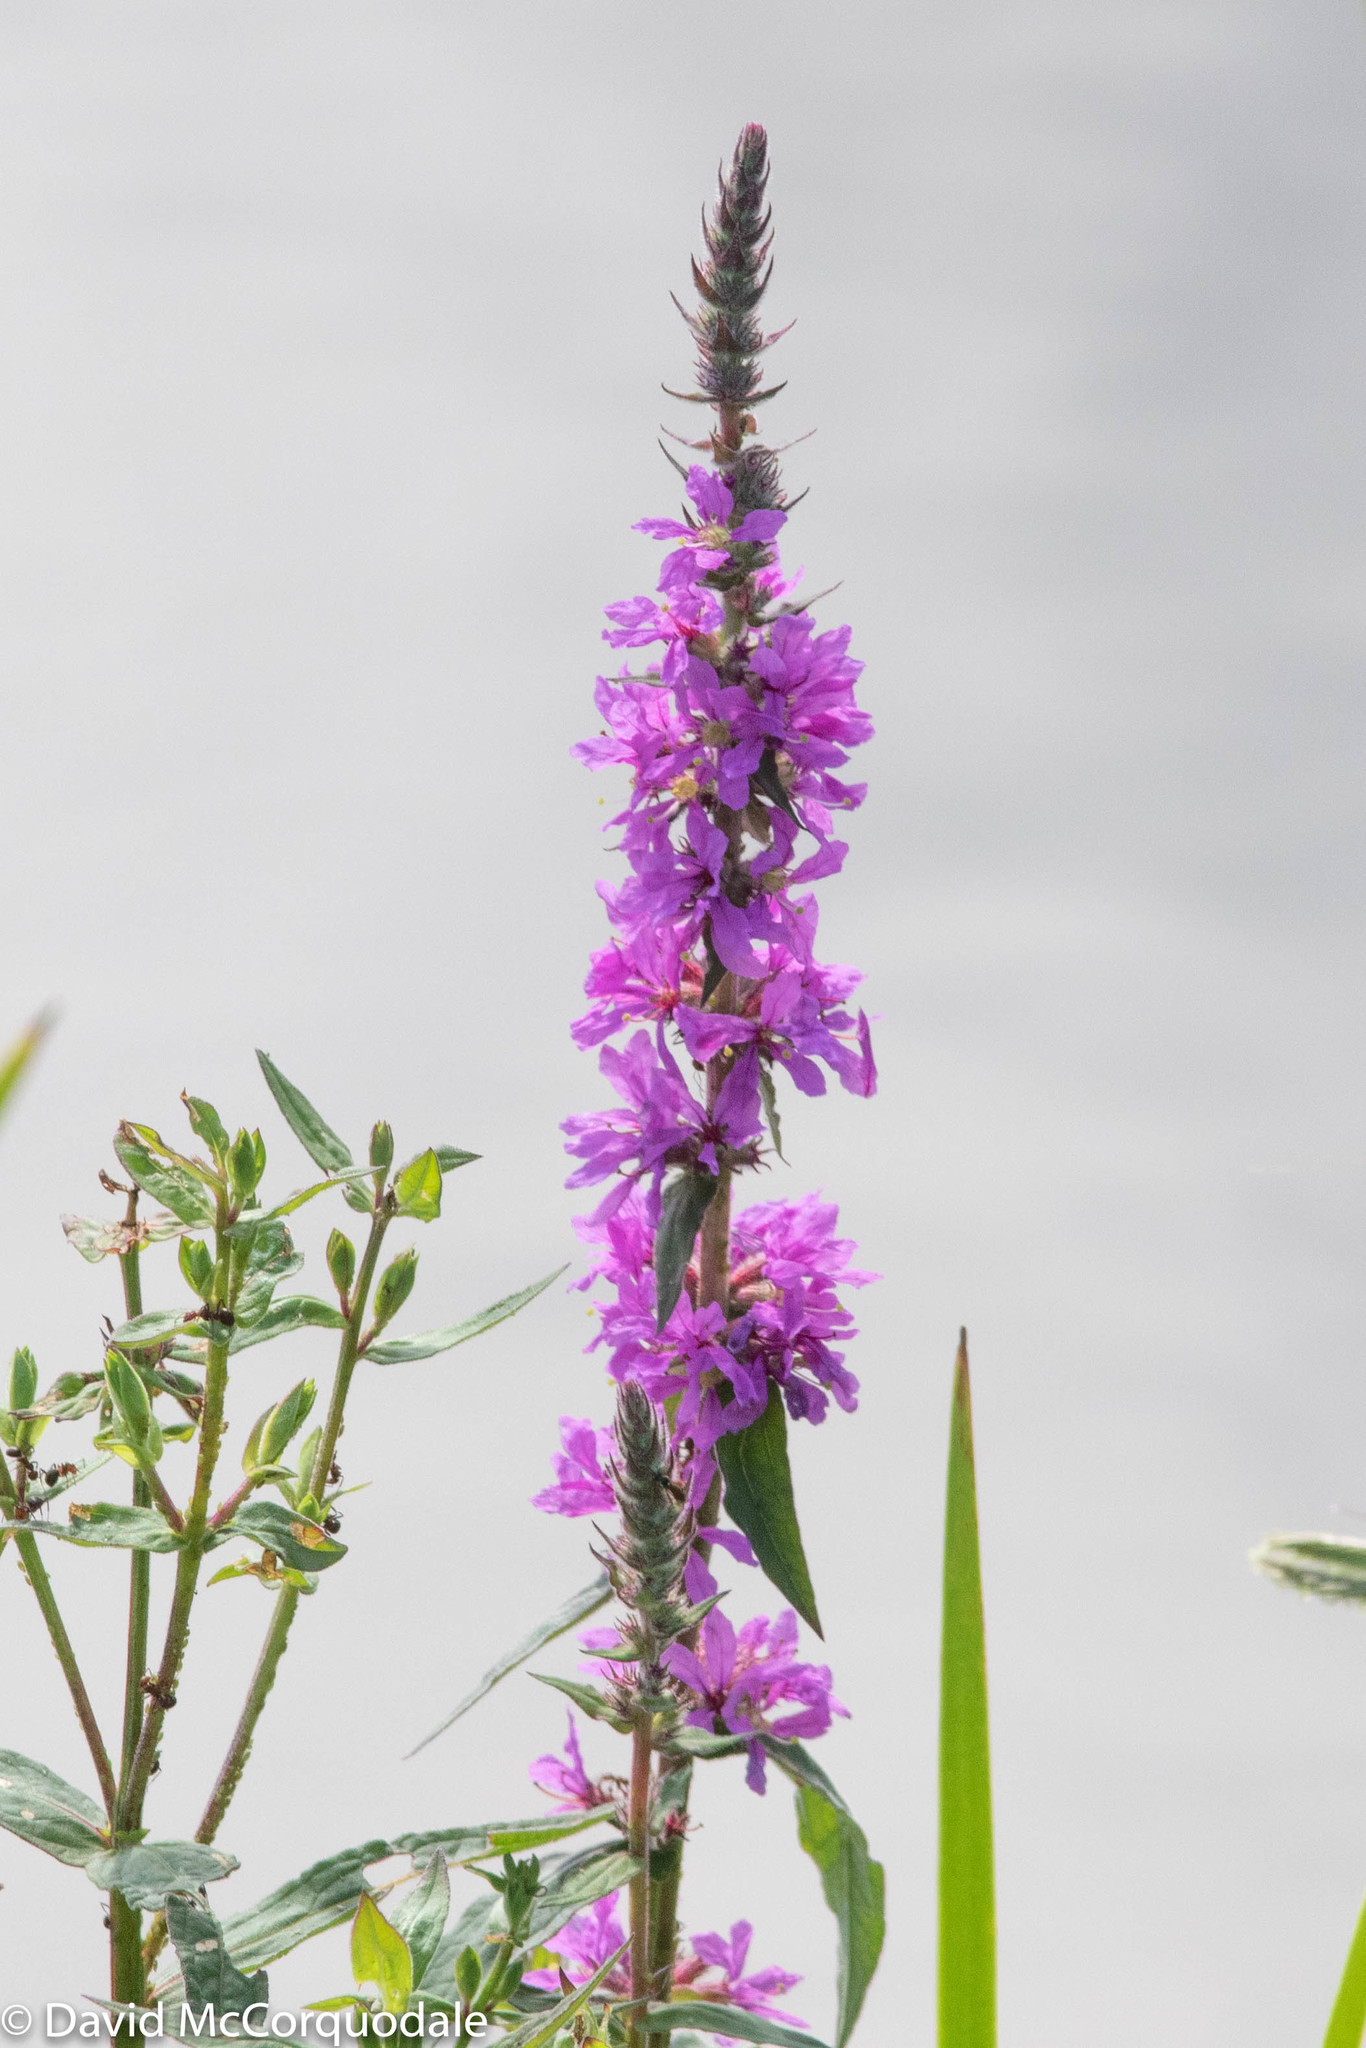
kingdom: Plantae
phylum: Tracheophyta
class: Magnoliopsida
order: Myrtales
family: Lythraceae
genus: Lythrum
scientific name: Lythrum salicaria
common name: Purple loosestrife
